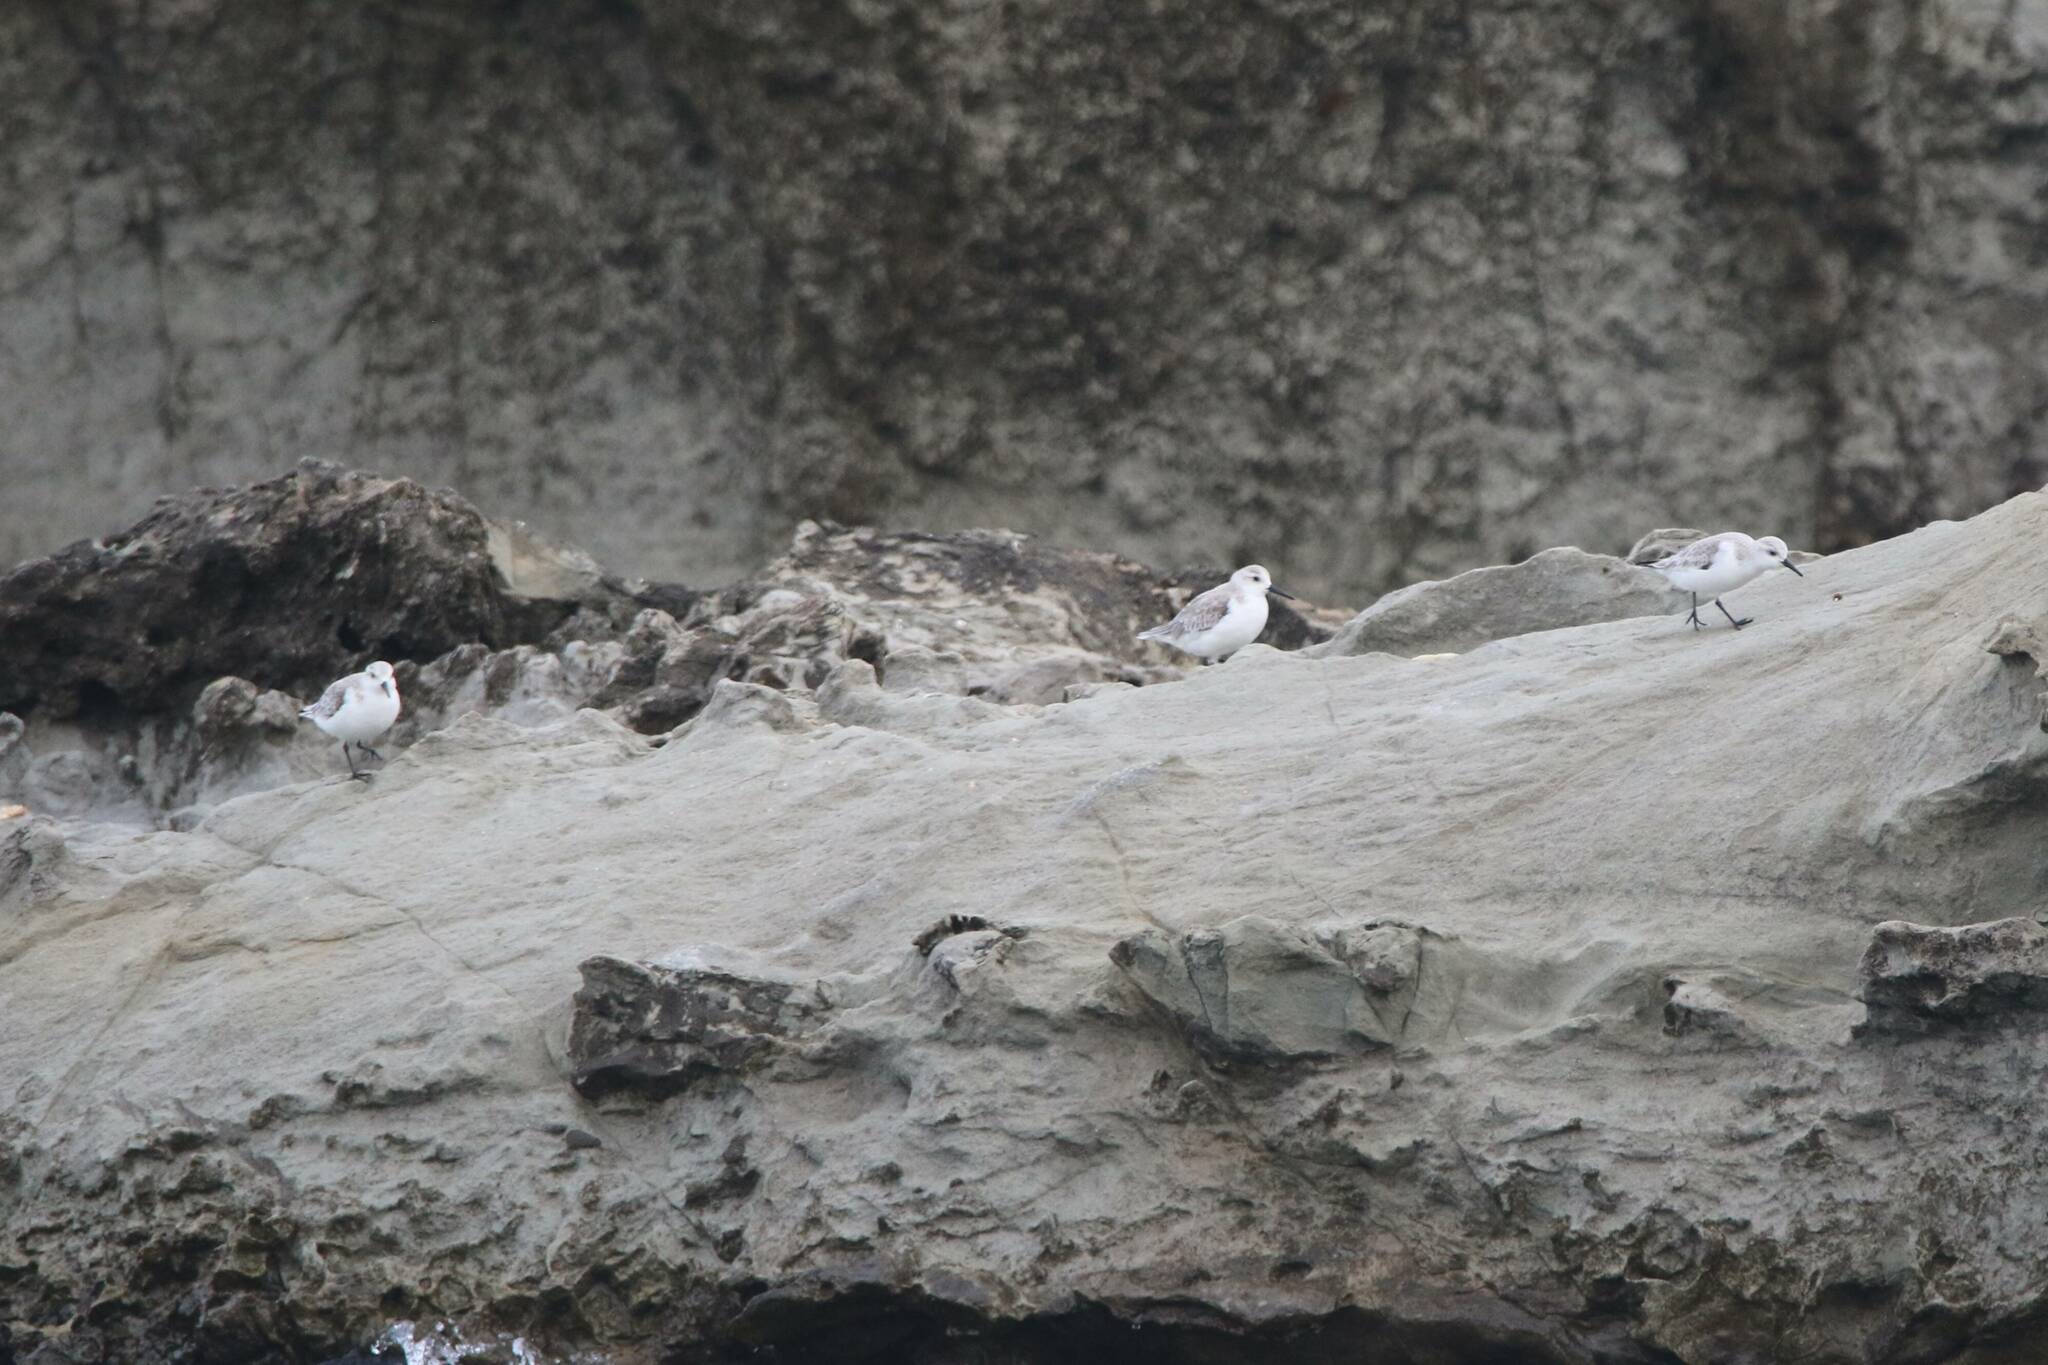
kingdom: Animalia
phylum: Chordata
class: Aves
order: Charadriiformes
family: Scolopacidae
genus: Calidris
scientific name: Calidris alba
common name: Sanderling
